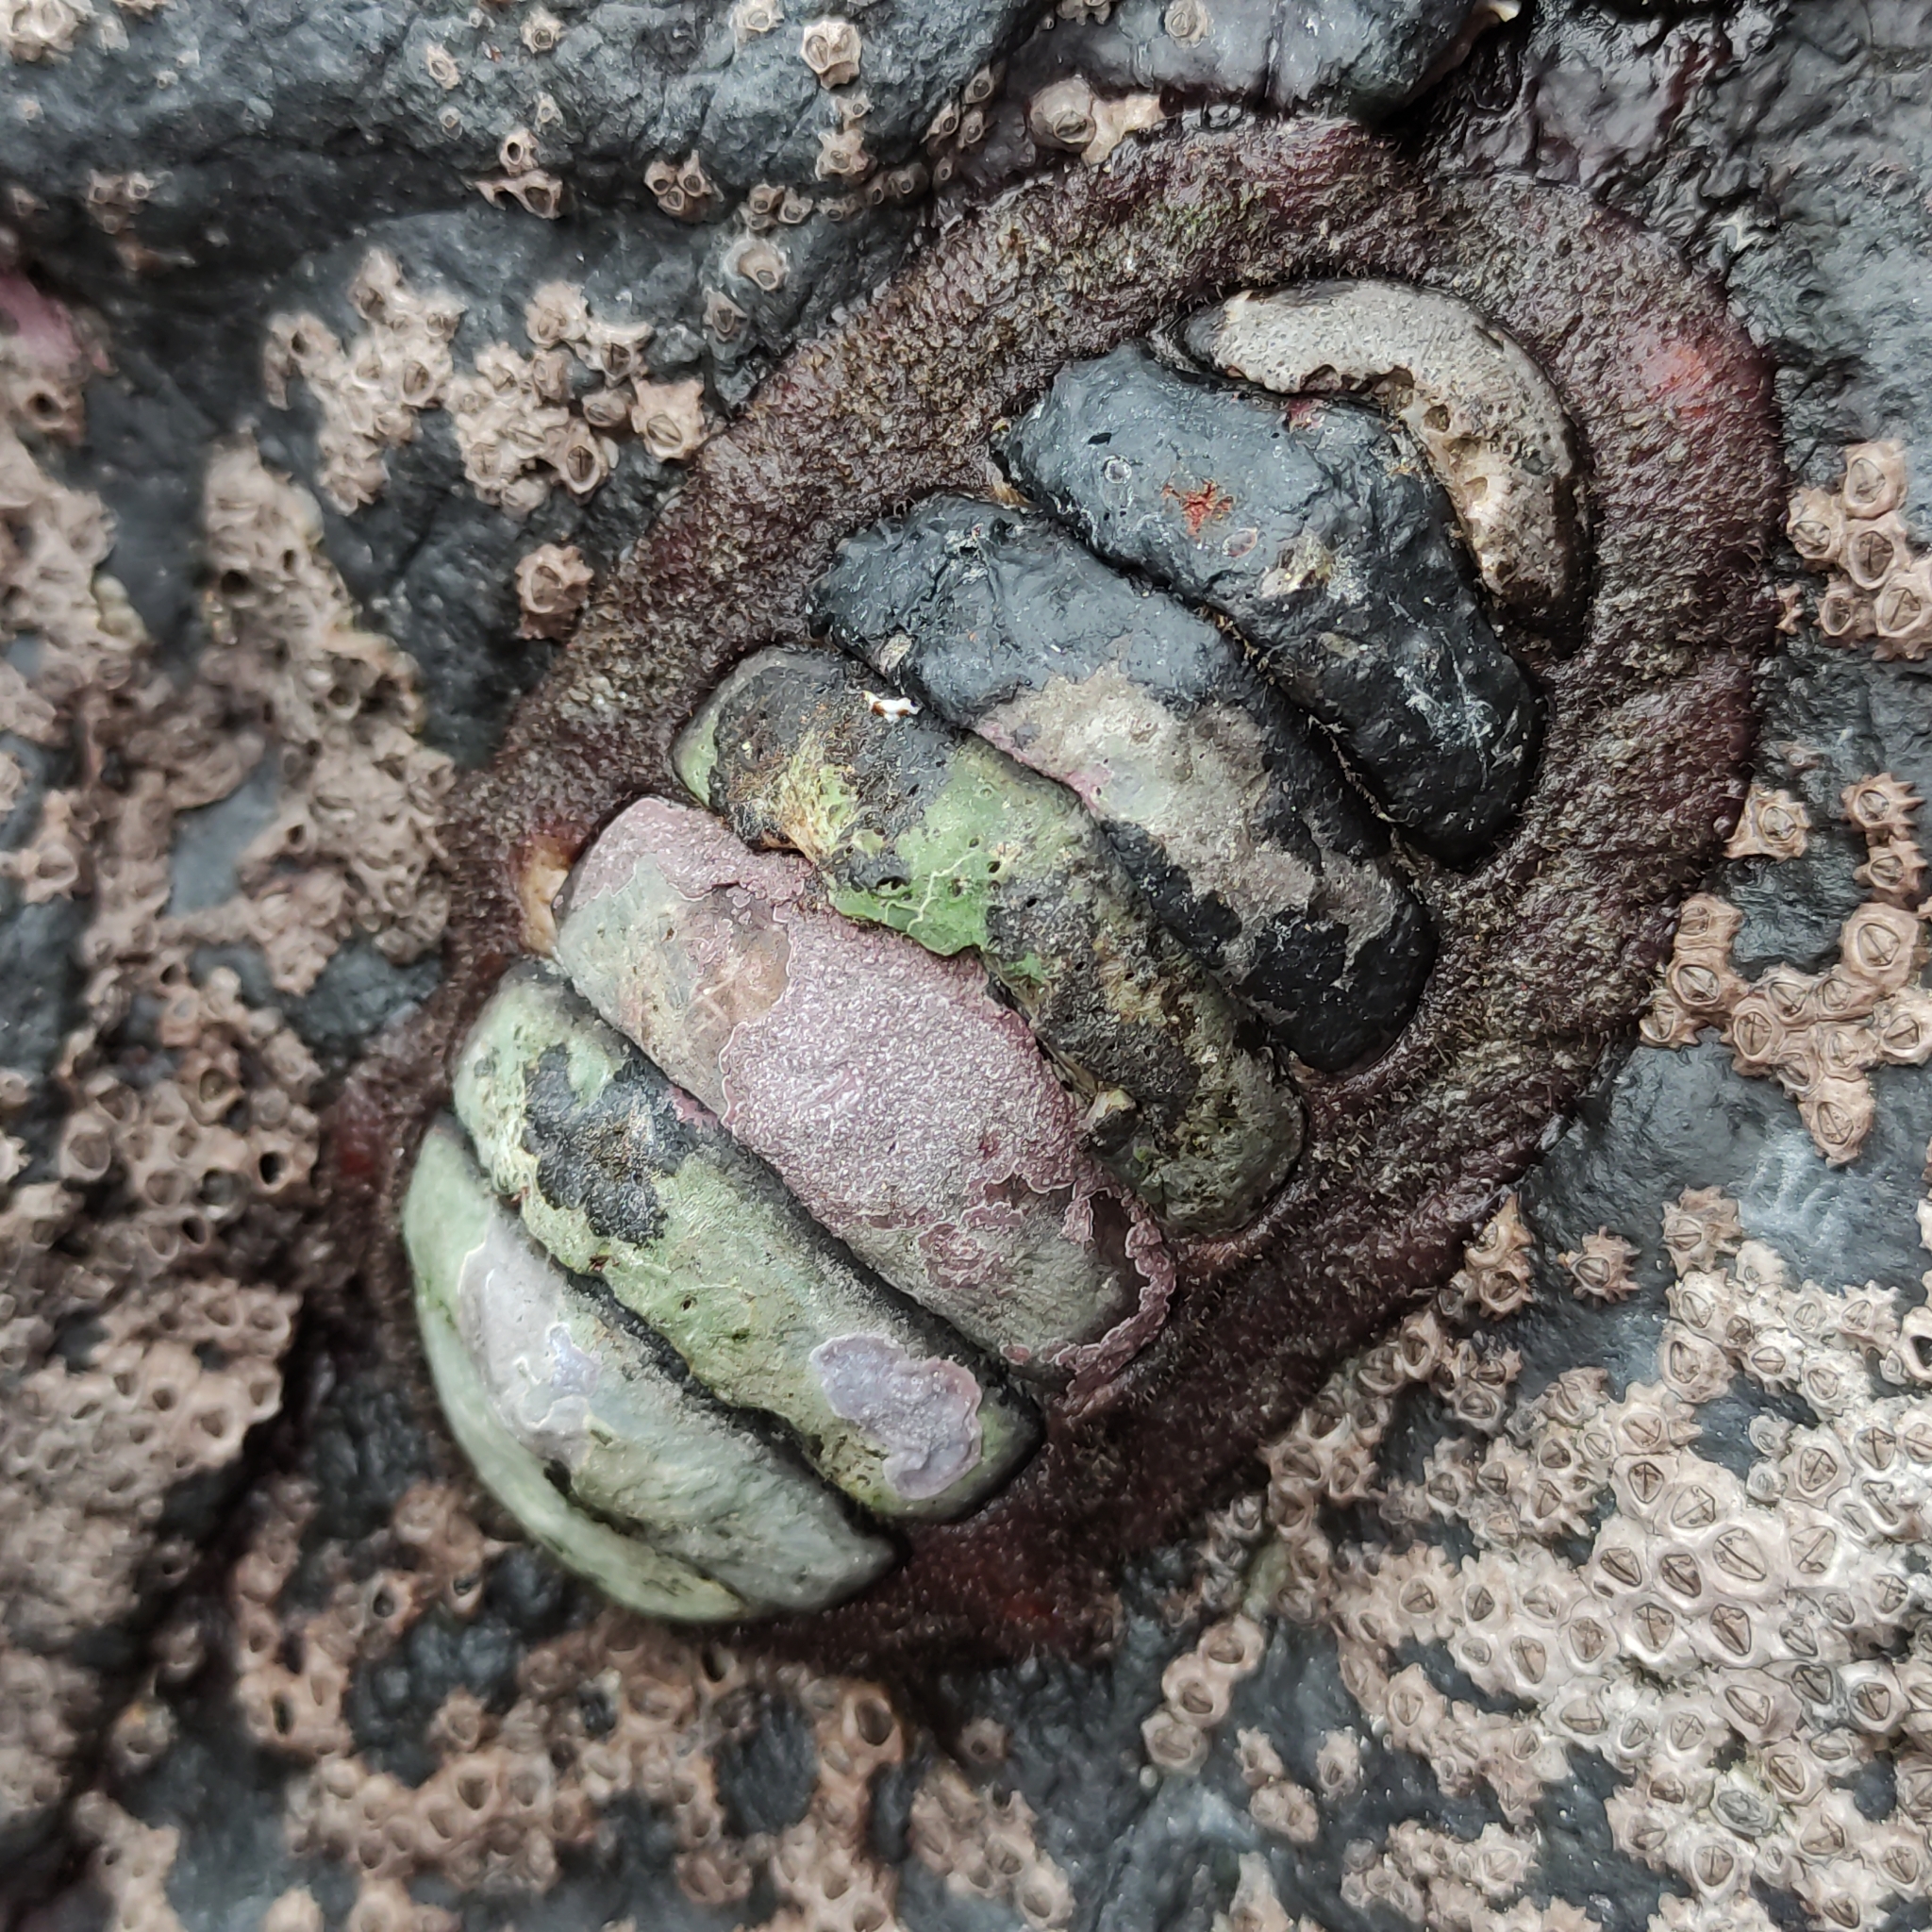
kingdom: Animalia
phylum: Mollusca
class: Polyplacophora
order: Callochitonida
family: Callochitonidae
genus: Eudoxochiton
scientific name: Eudoxochiton nobilis
